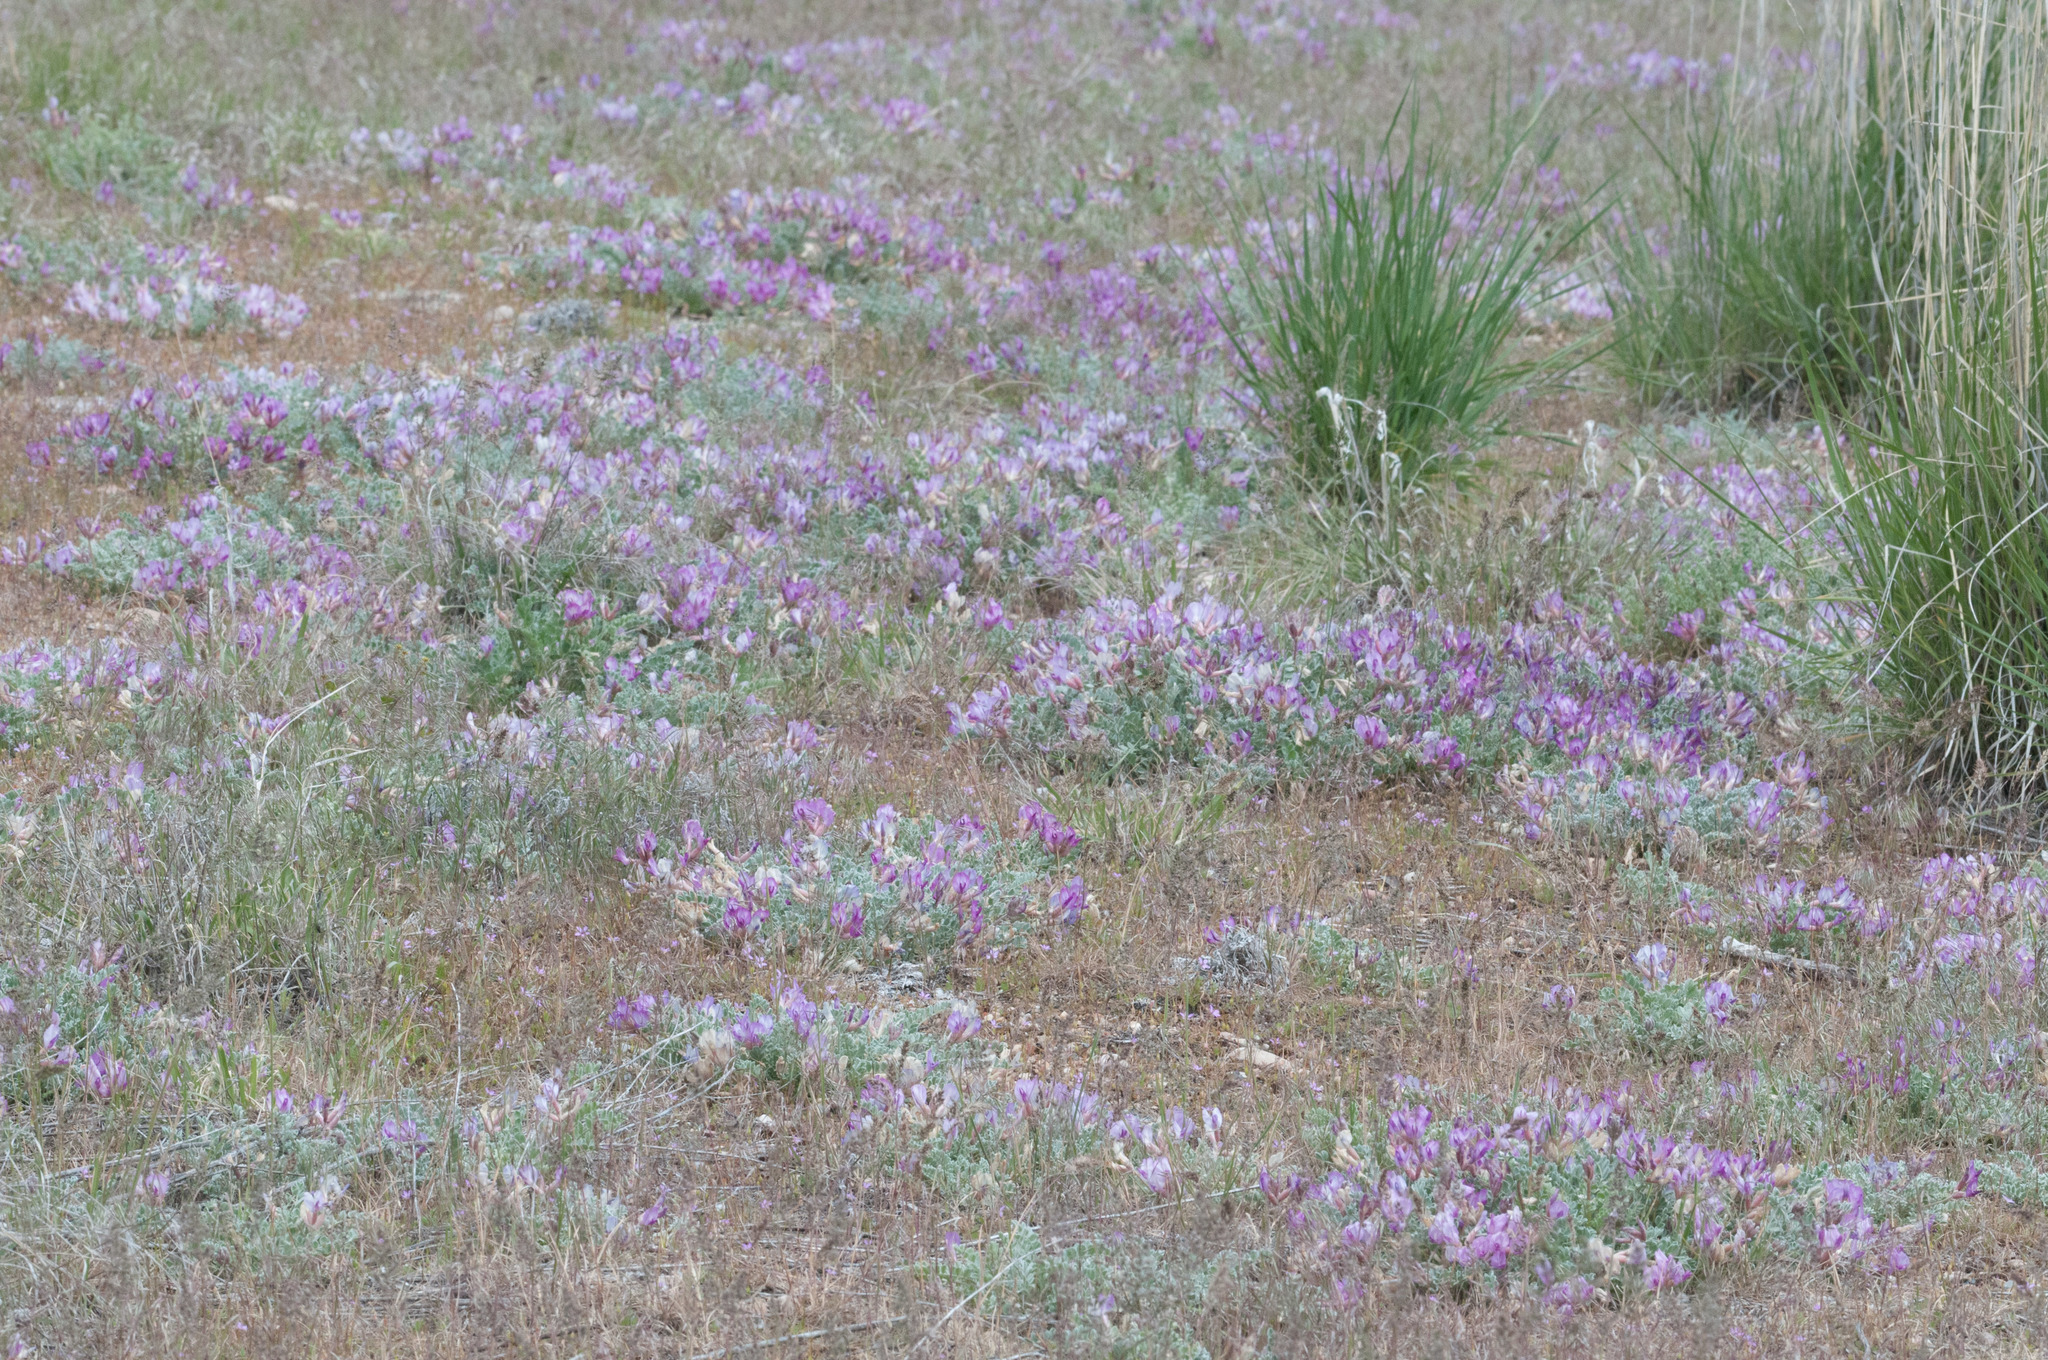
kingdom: Plantae
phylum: Tracheophyta
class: Magnoliopsida
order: Fabales
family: Fabaceae
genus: Astragalus
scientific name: Astragalus utahensis
